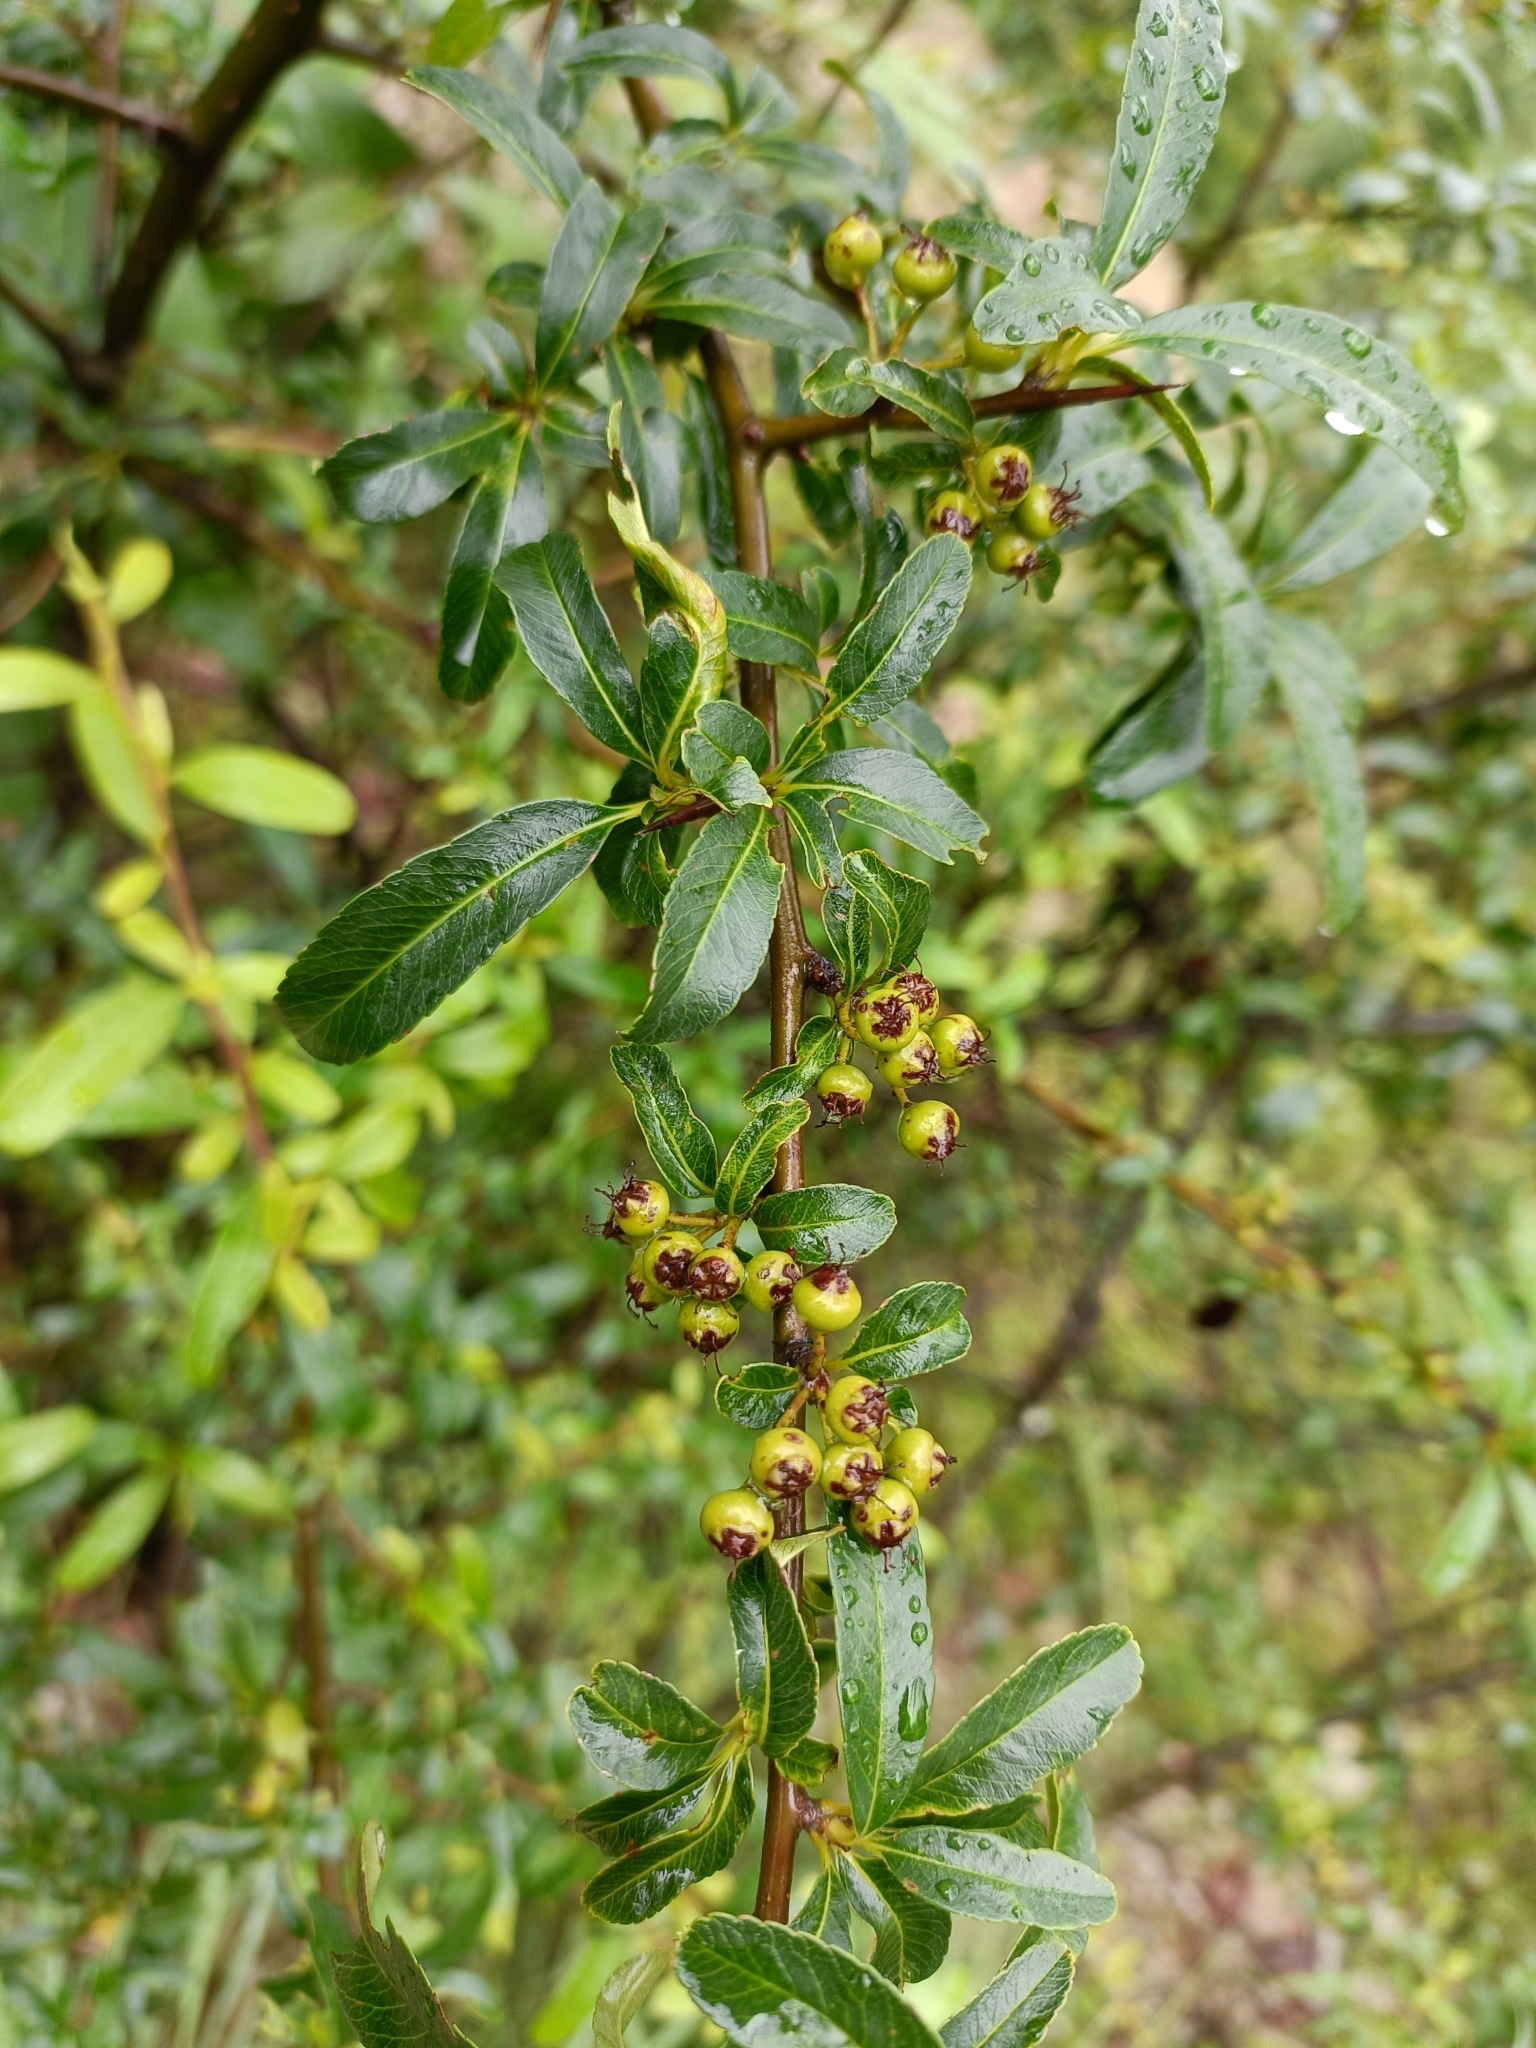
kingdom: Plantae
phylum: Tracheophyta
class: Magnoliopsida
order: Rosales
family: Rosaceae
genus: Pyracantha
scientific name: Pyracantha crenulata
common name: Nepalese firethorn
